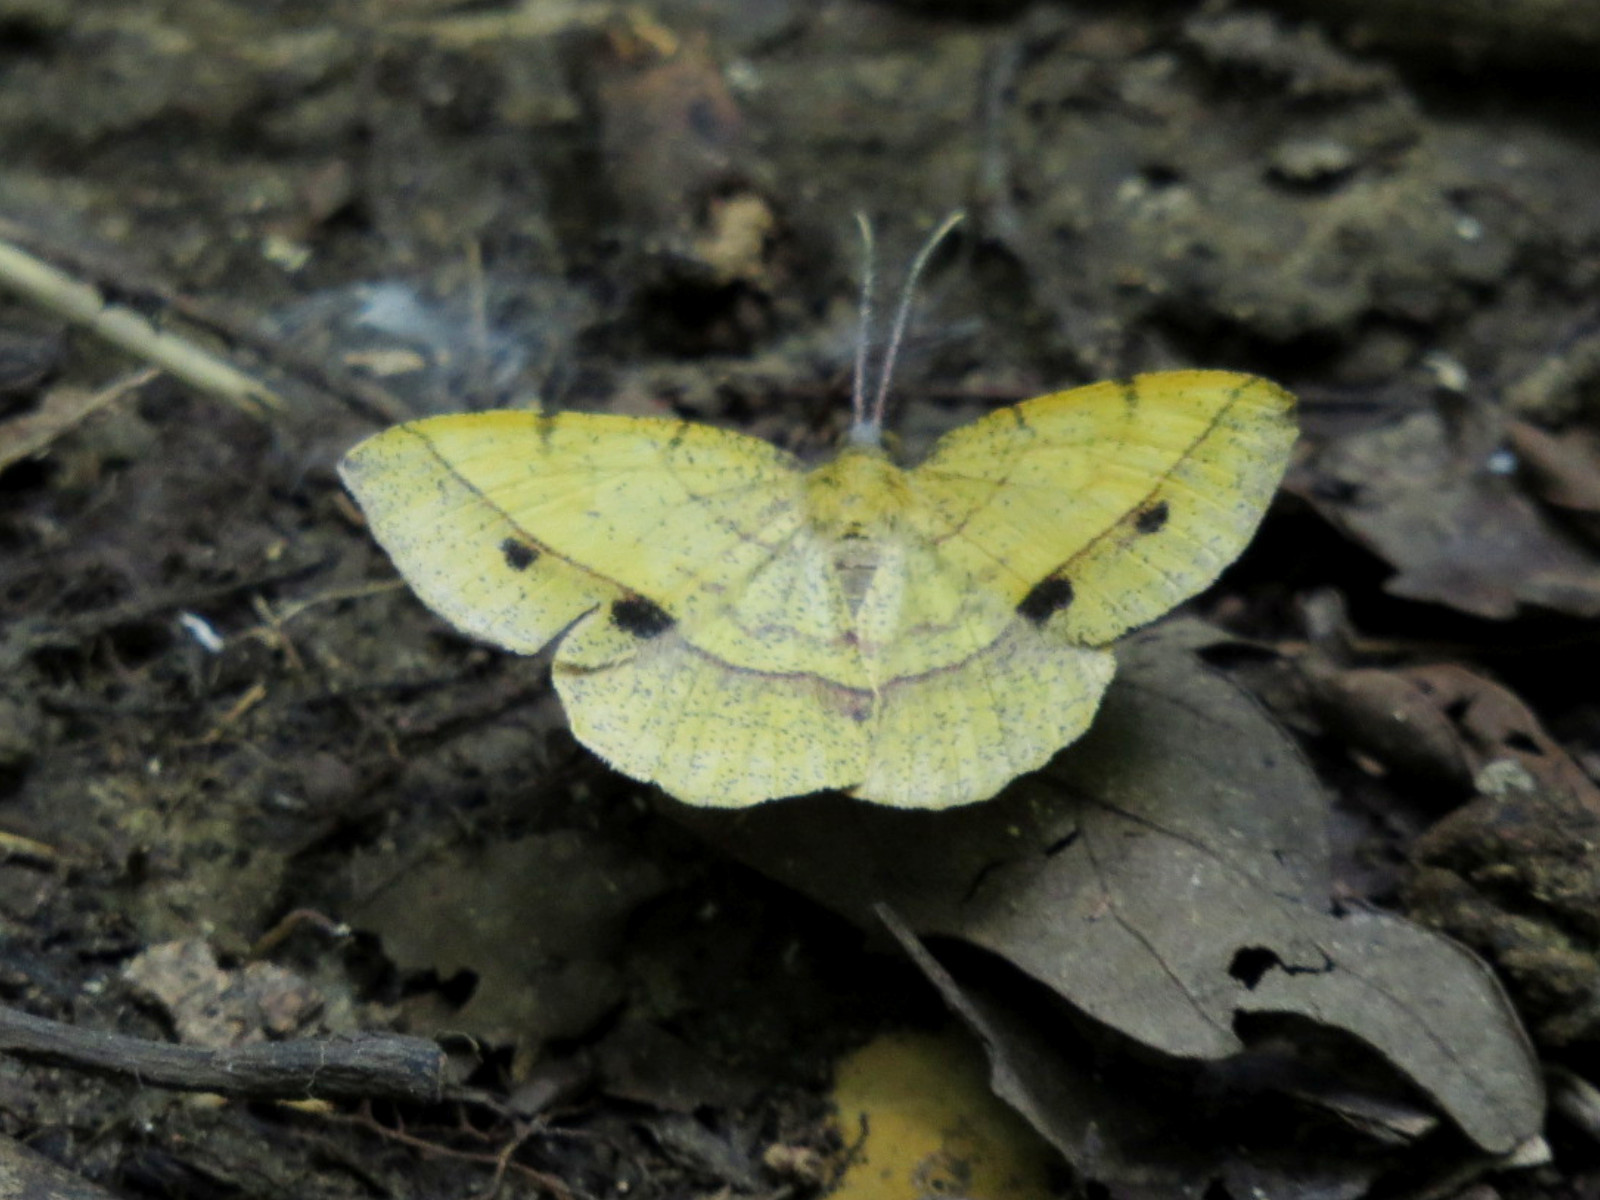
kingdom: Animalia
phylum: Arthropoda
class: Insecta
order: Lepidoptera
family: Geometridae
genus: Erastria
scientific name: Erastria cruentaria
